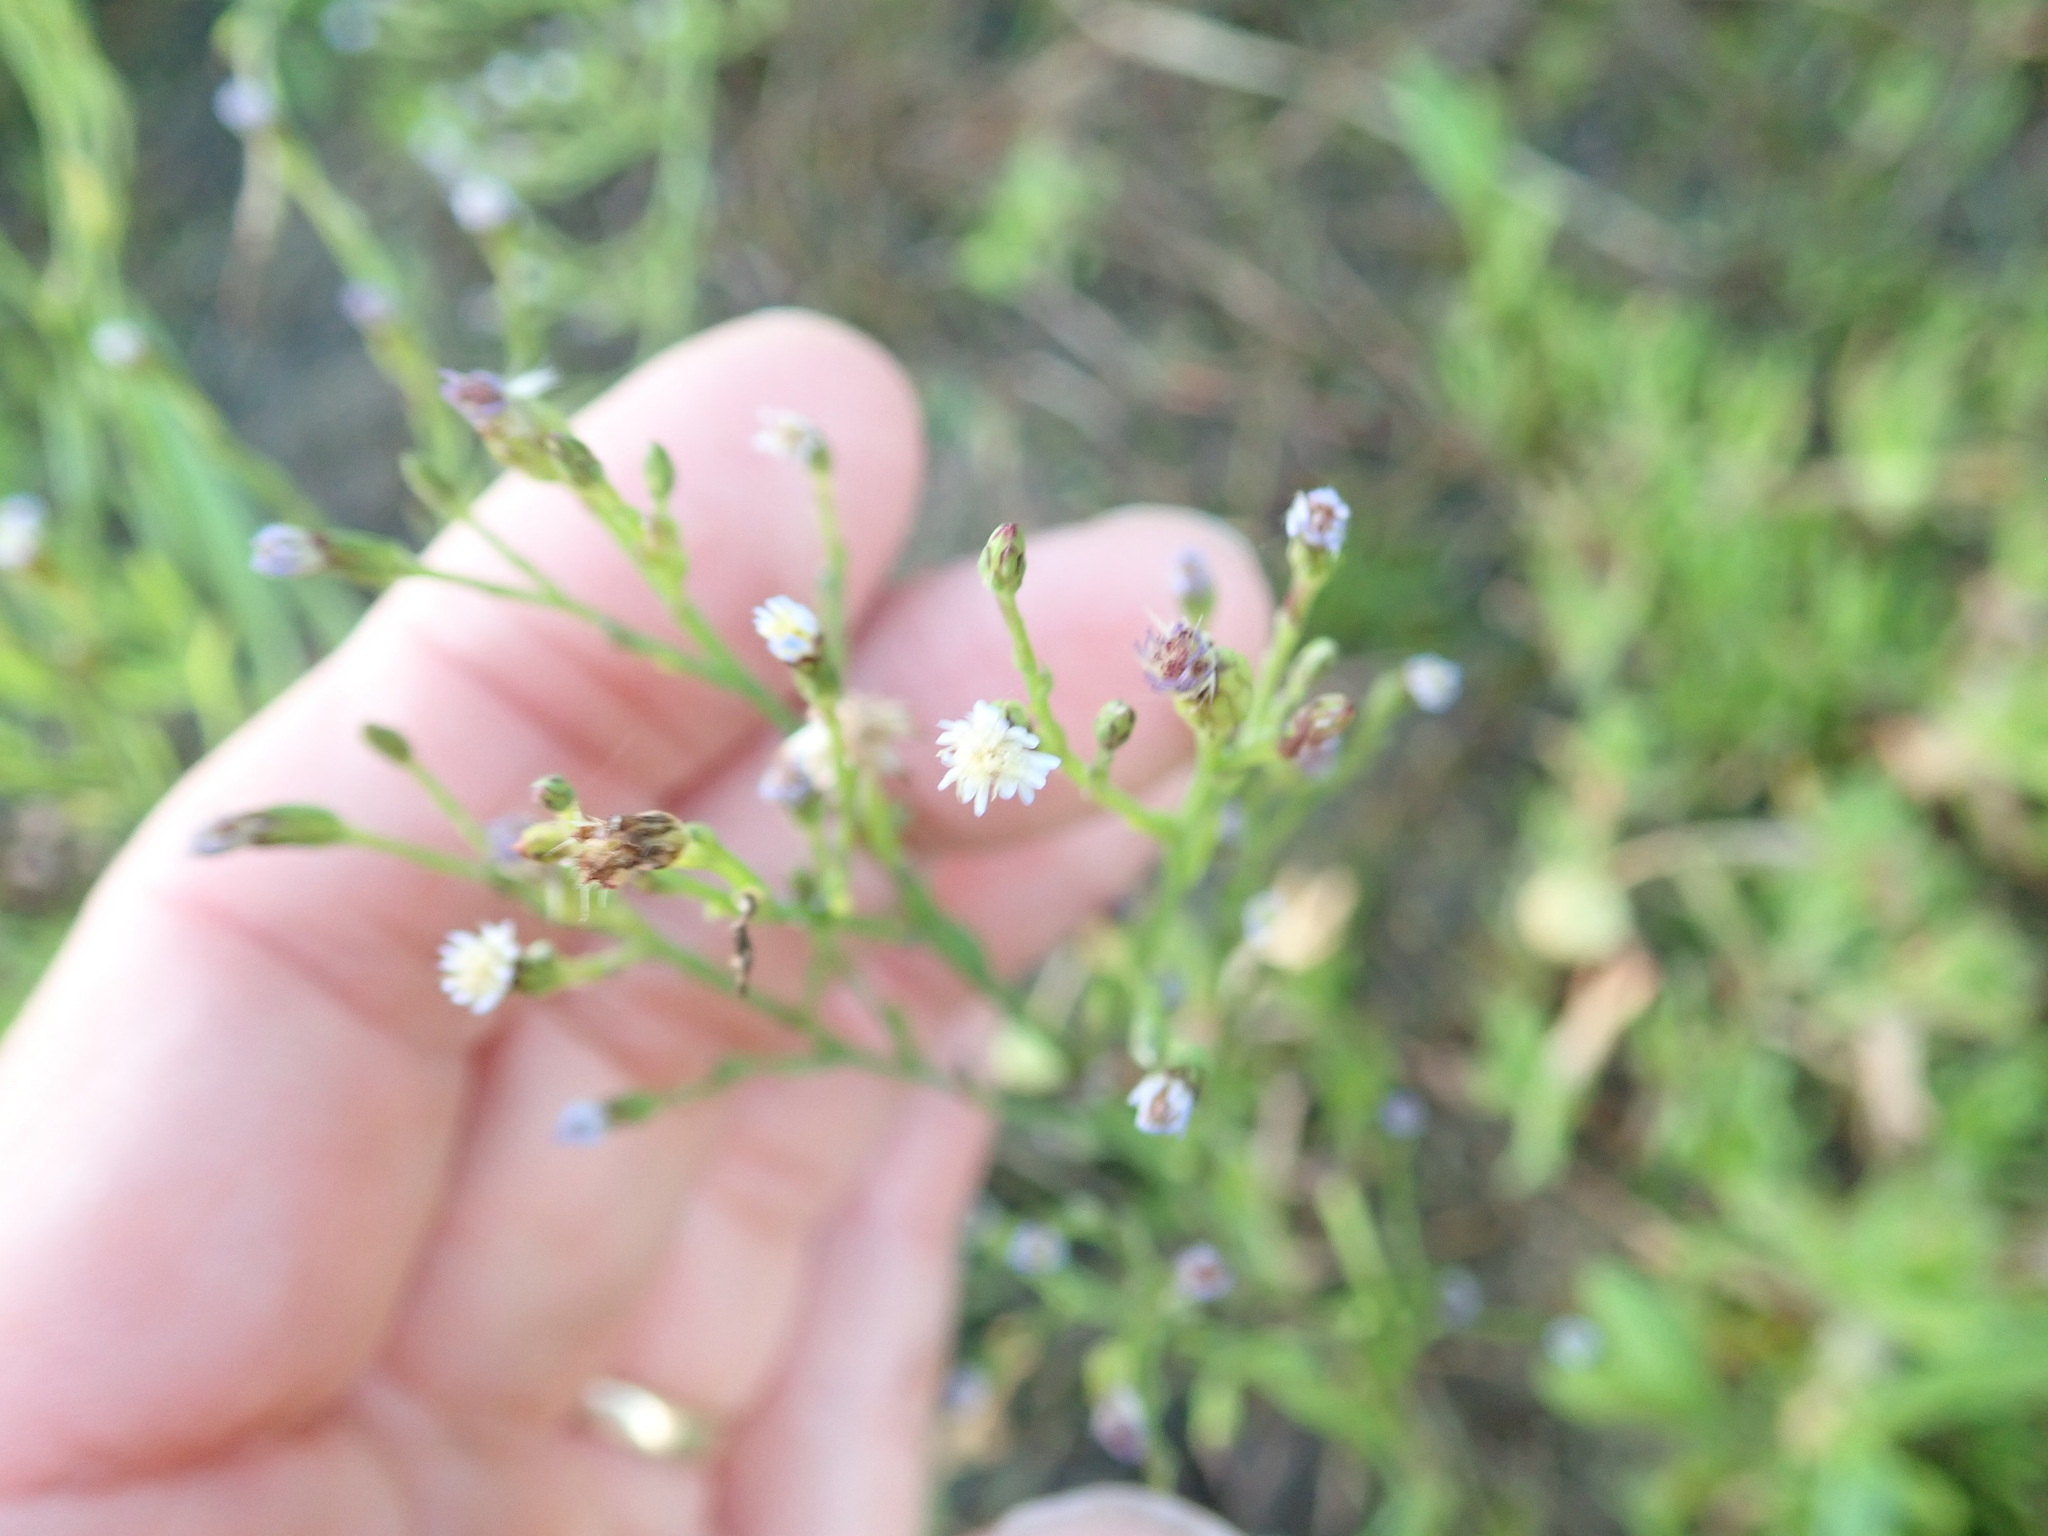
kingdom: Plantae
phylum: Tracheophyta
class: Magnoliopsida
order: Asterales
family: Asteraceae
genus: Symphyotrichum
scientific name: Symphyotrichum subulatum
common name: Annual saltmarsh aster
